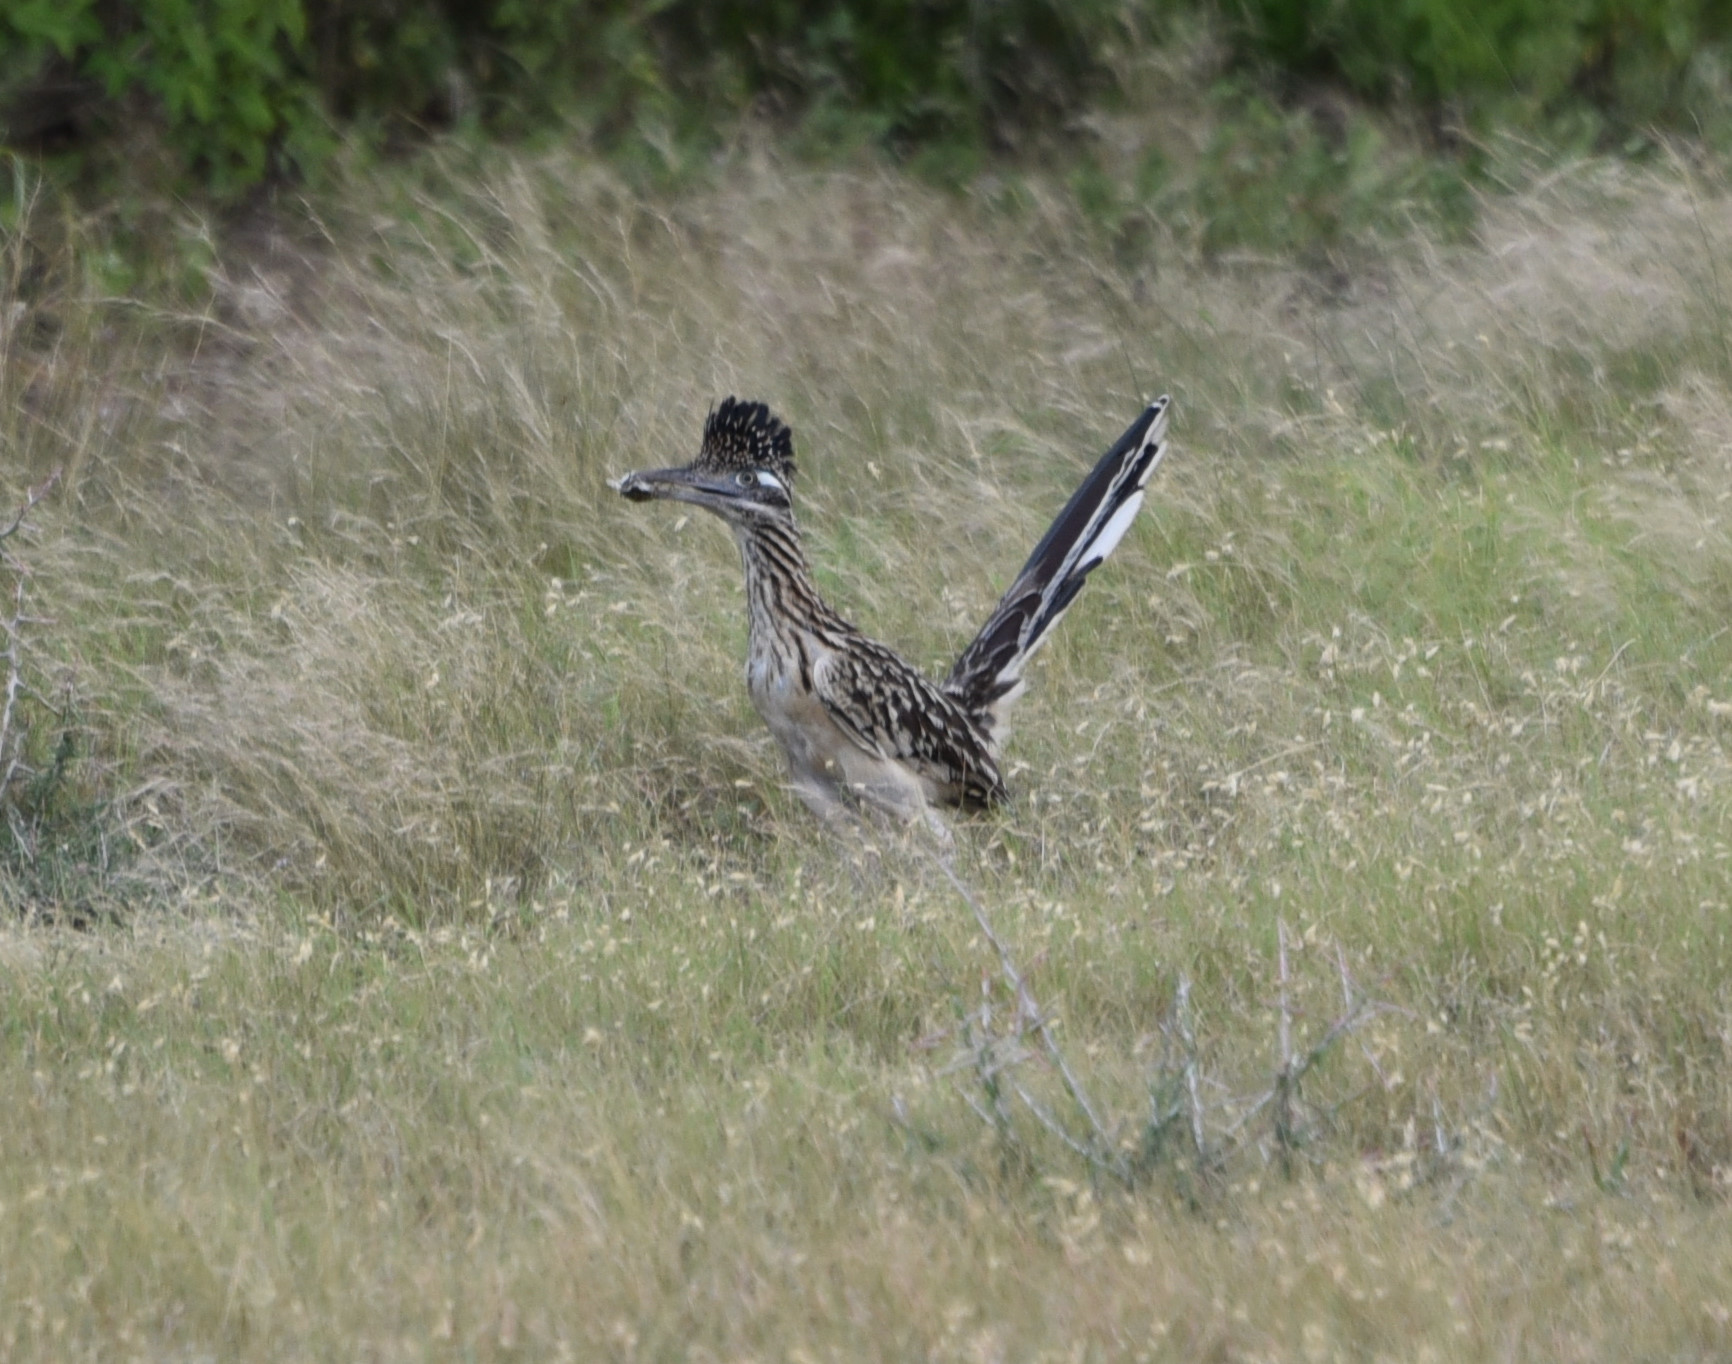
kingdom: Animalia
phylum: Chordata
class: Aves
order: Cuculiformes
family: Cuculidae
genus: Geococcyx
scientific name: Geococcyx californianus
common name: Greater roadrunner
